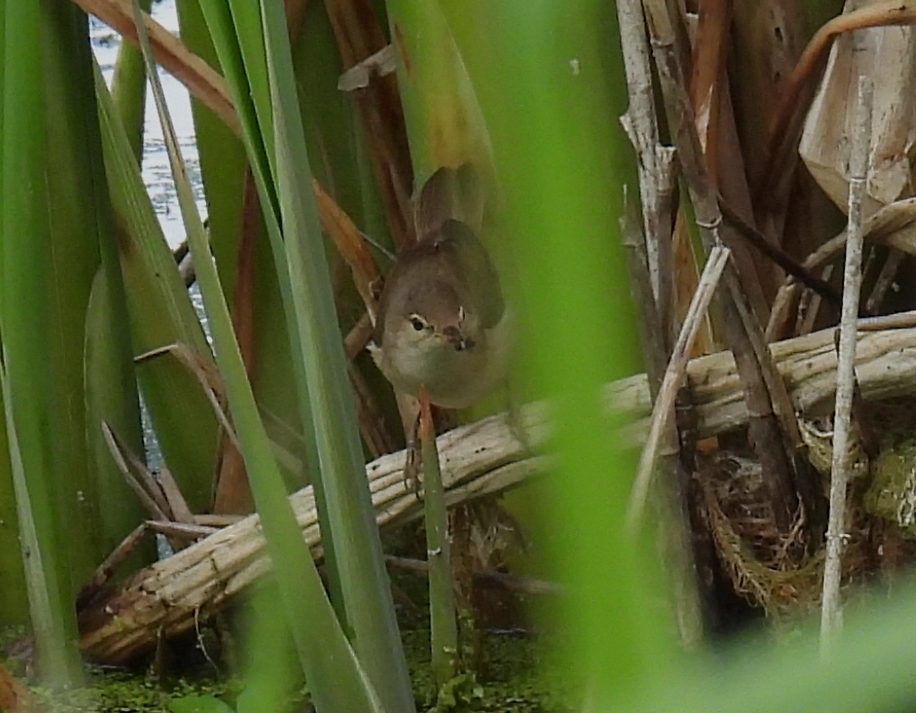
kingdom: Animalia
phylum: Chordata
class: Aves
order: Passeriformes
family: Cettiidae
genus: Cettia
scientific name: Cettia cetti
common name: Cetti's warbler
